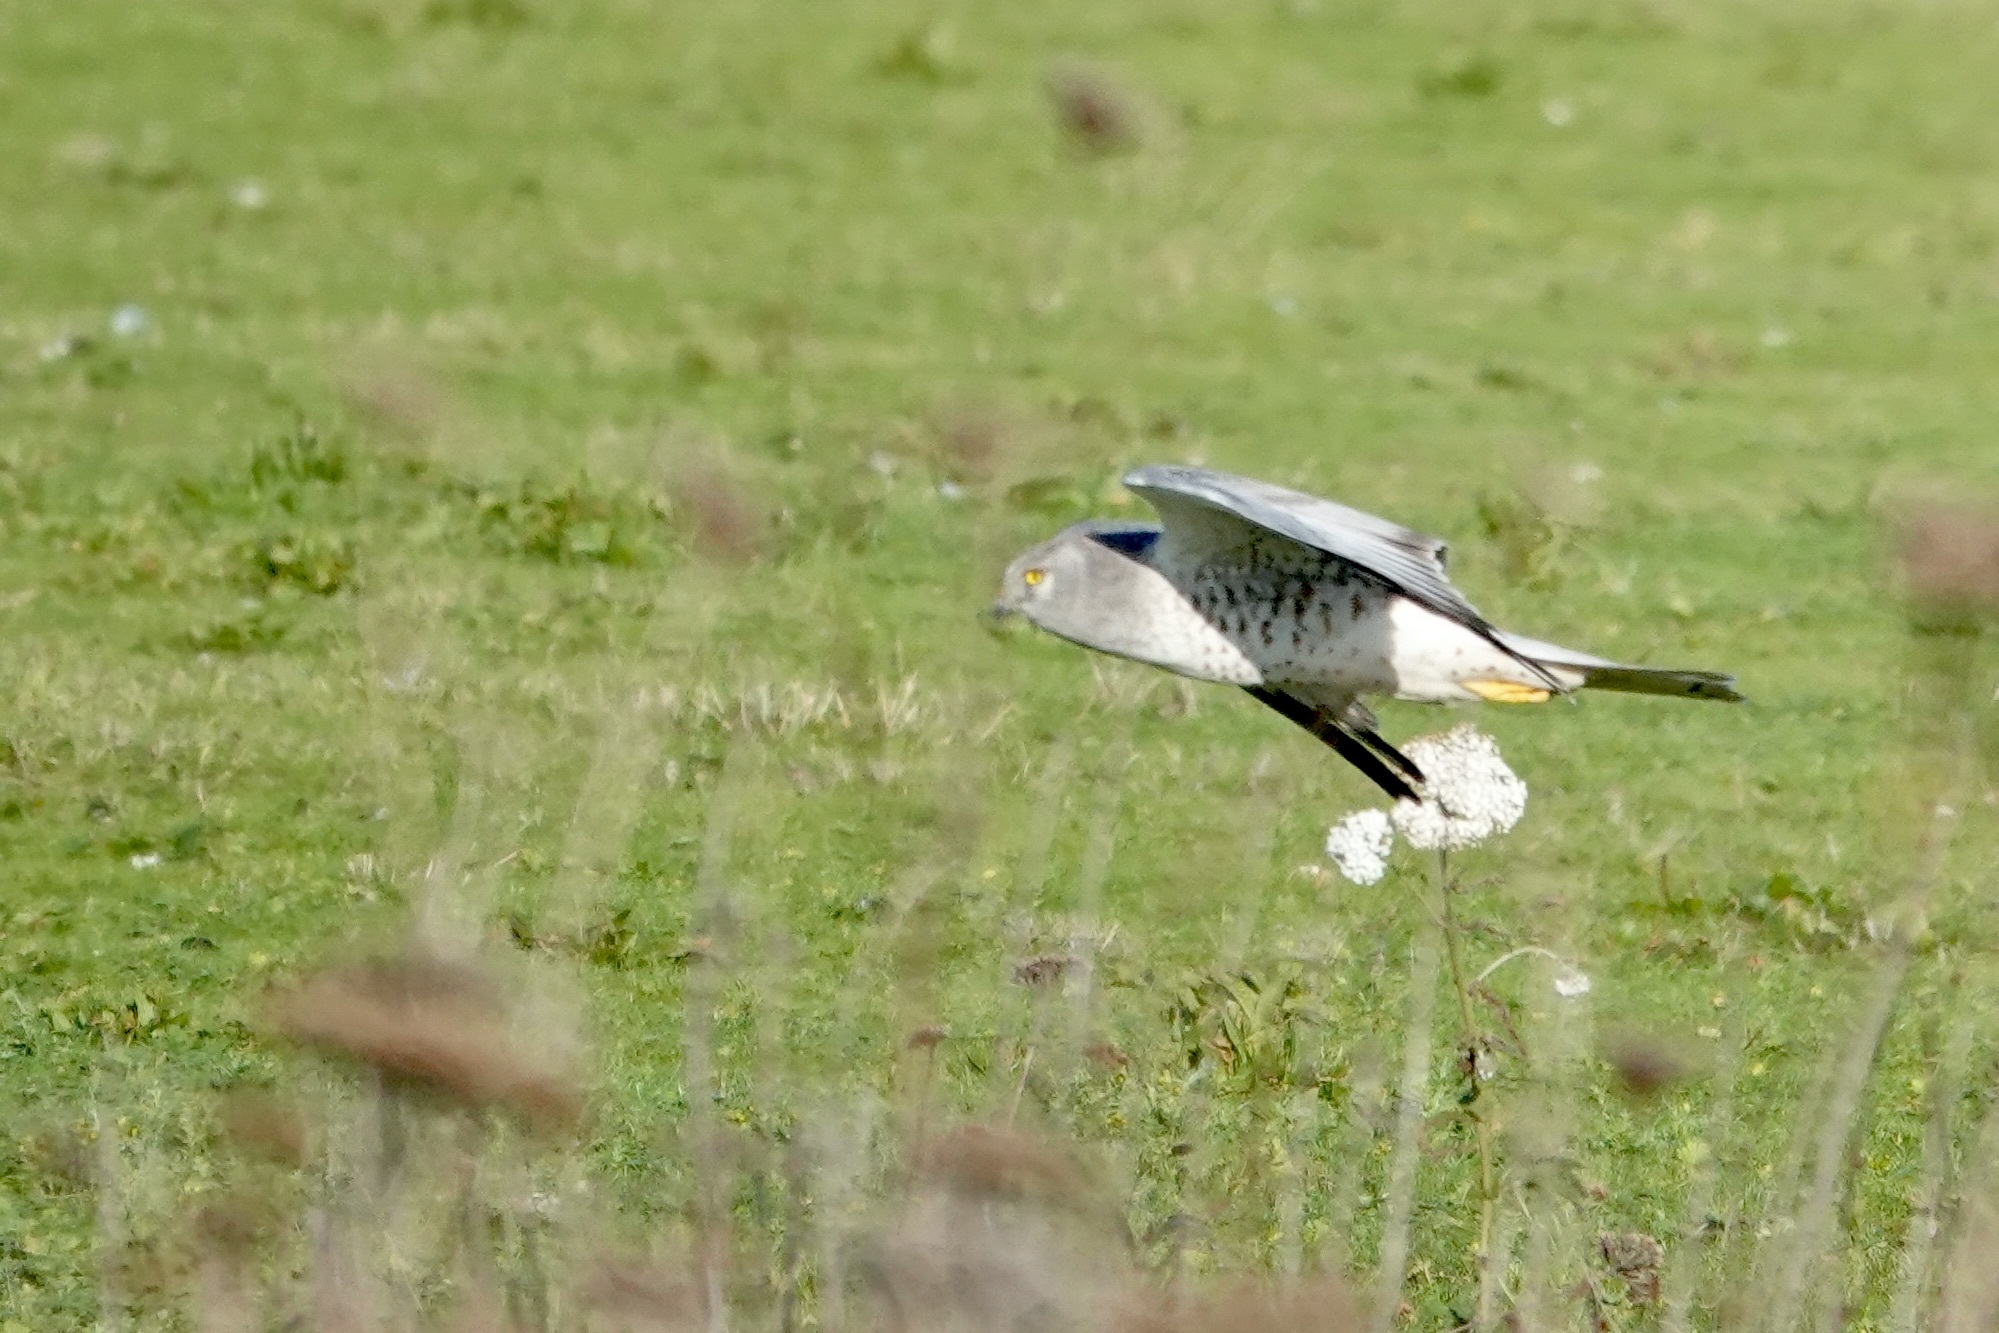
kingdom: Animalia
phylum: Chordata
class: Aves
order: Accipitriformes
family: Accipitridae
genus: Circus
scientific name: Circus cyaneus
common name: Hen harrier
